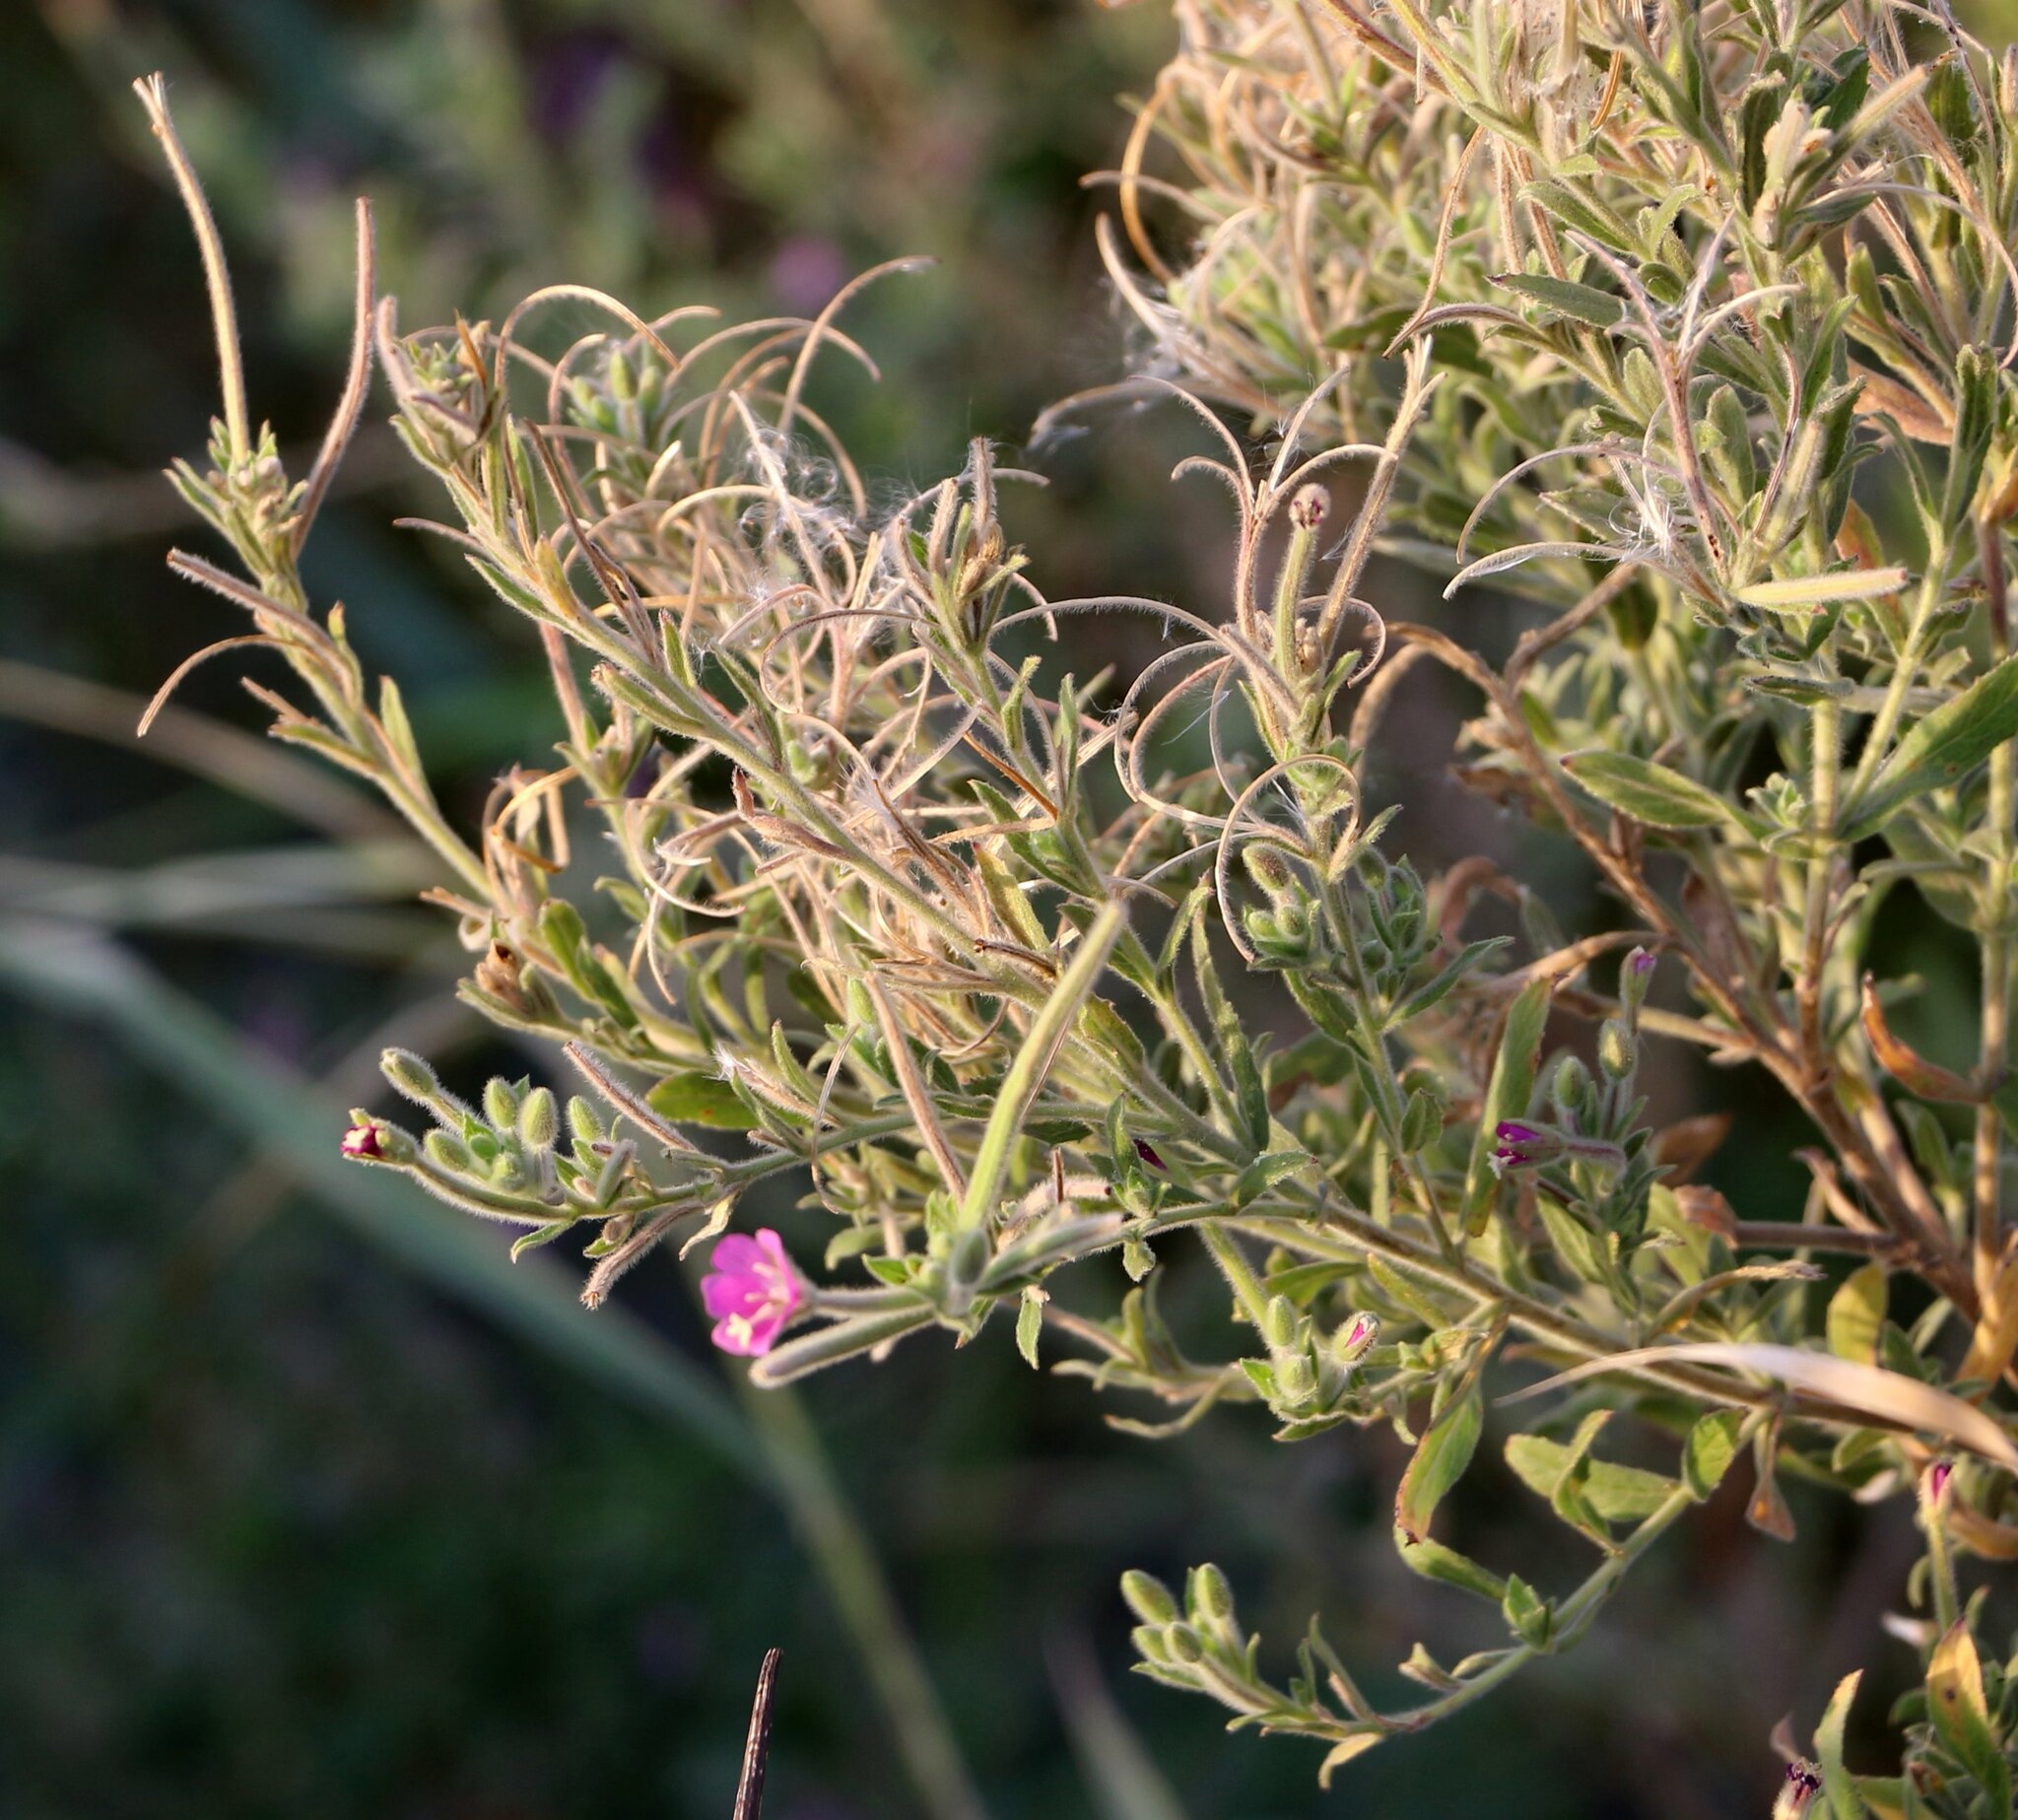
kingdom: Plantae
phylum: Tracheophyta
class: Magnoliopsida
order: Myrtales
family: Onagraceae
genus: Epilobium
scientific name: Epilobium hirsutum
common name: Great willowherb
